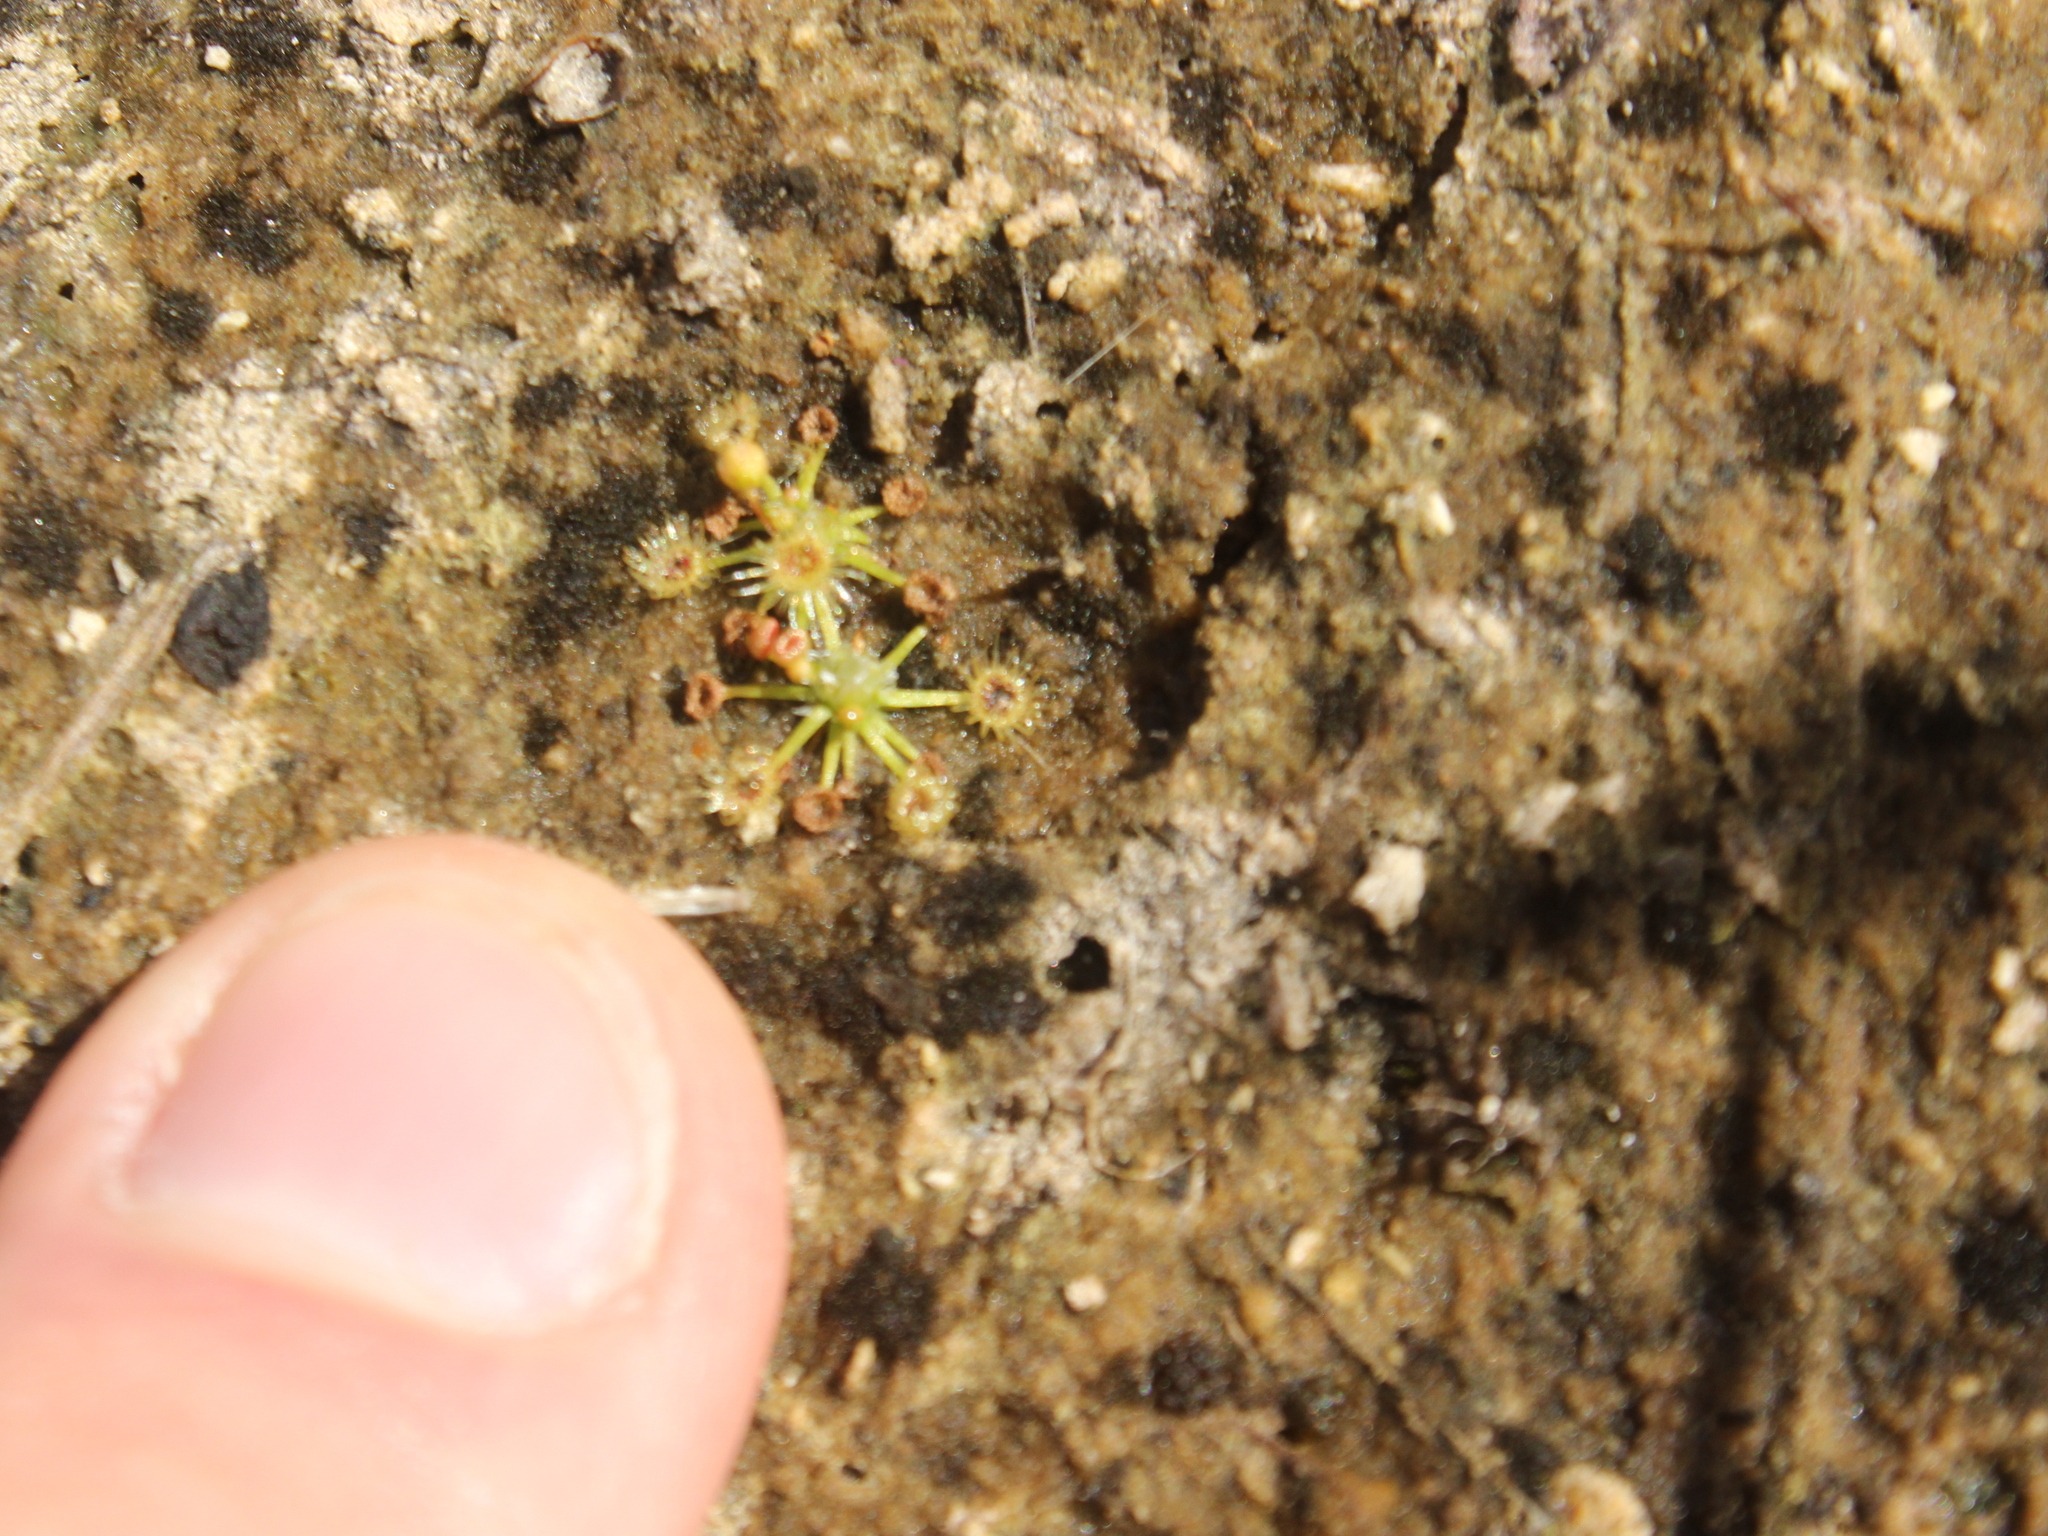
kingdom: Plantae
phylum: Tracheophyta
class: Magnoliopsida
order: Caryophyllales
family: Droseraceae
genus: Drosera
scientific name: Drosera pygmaea
